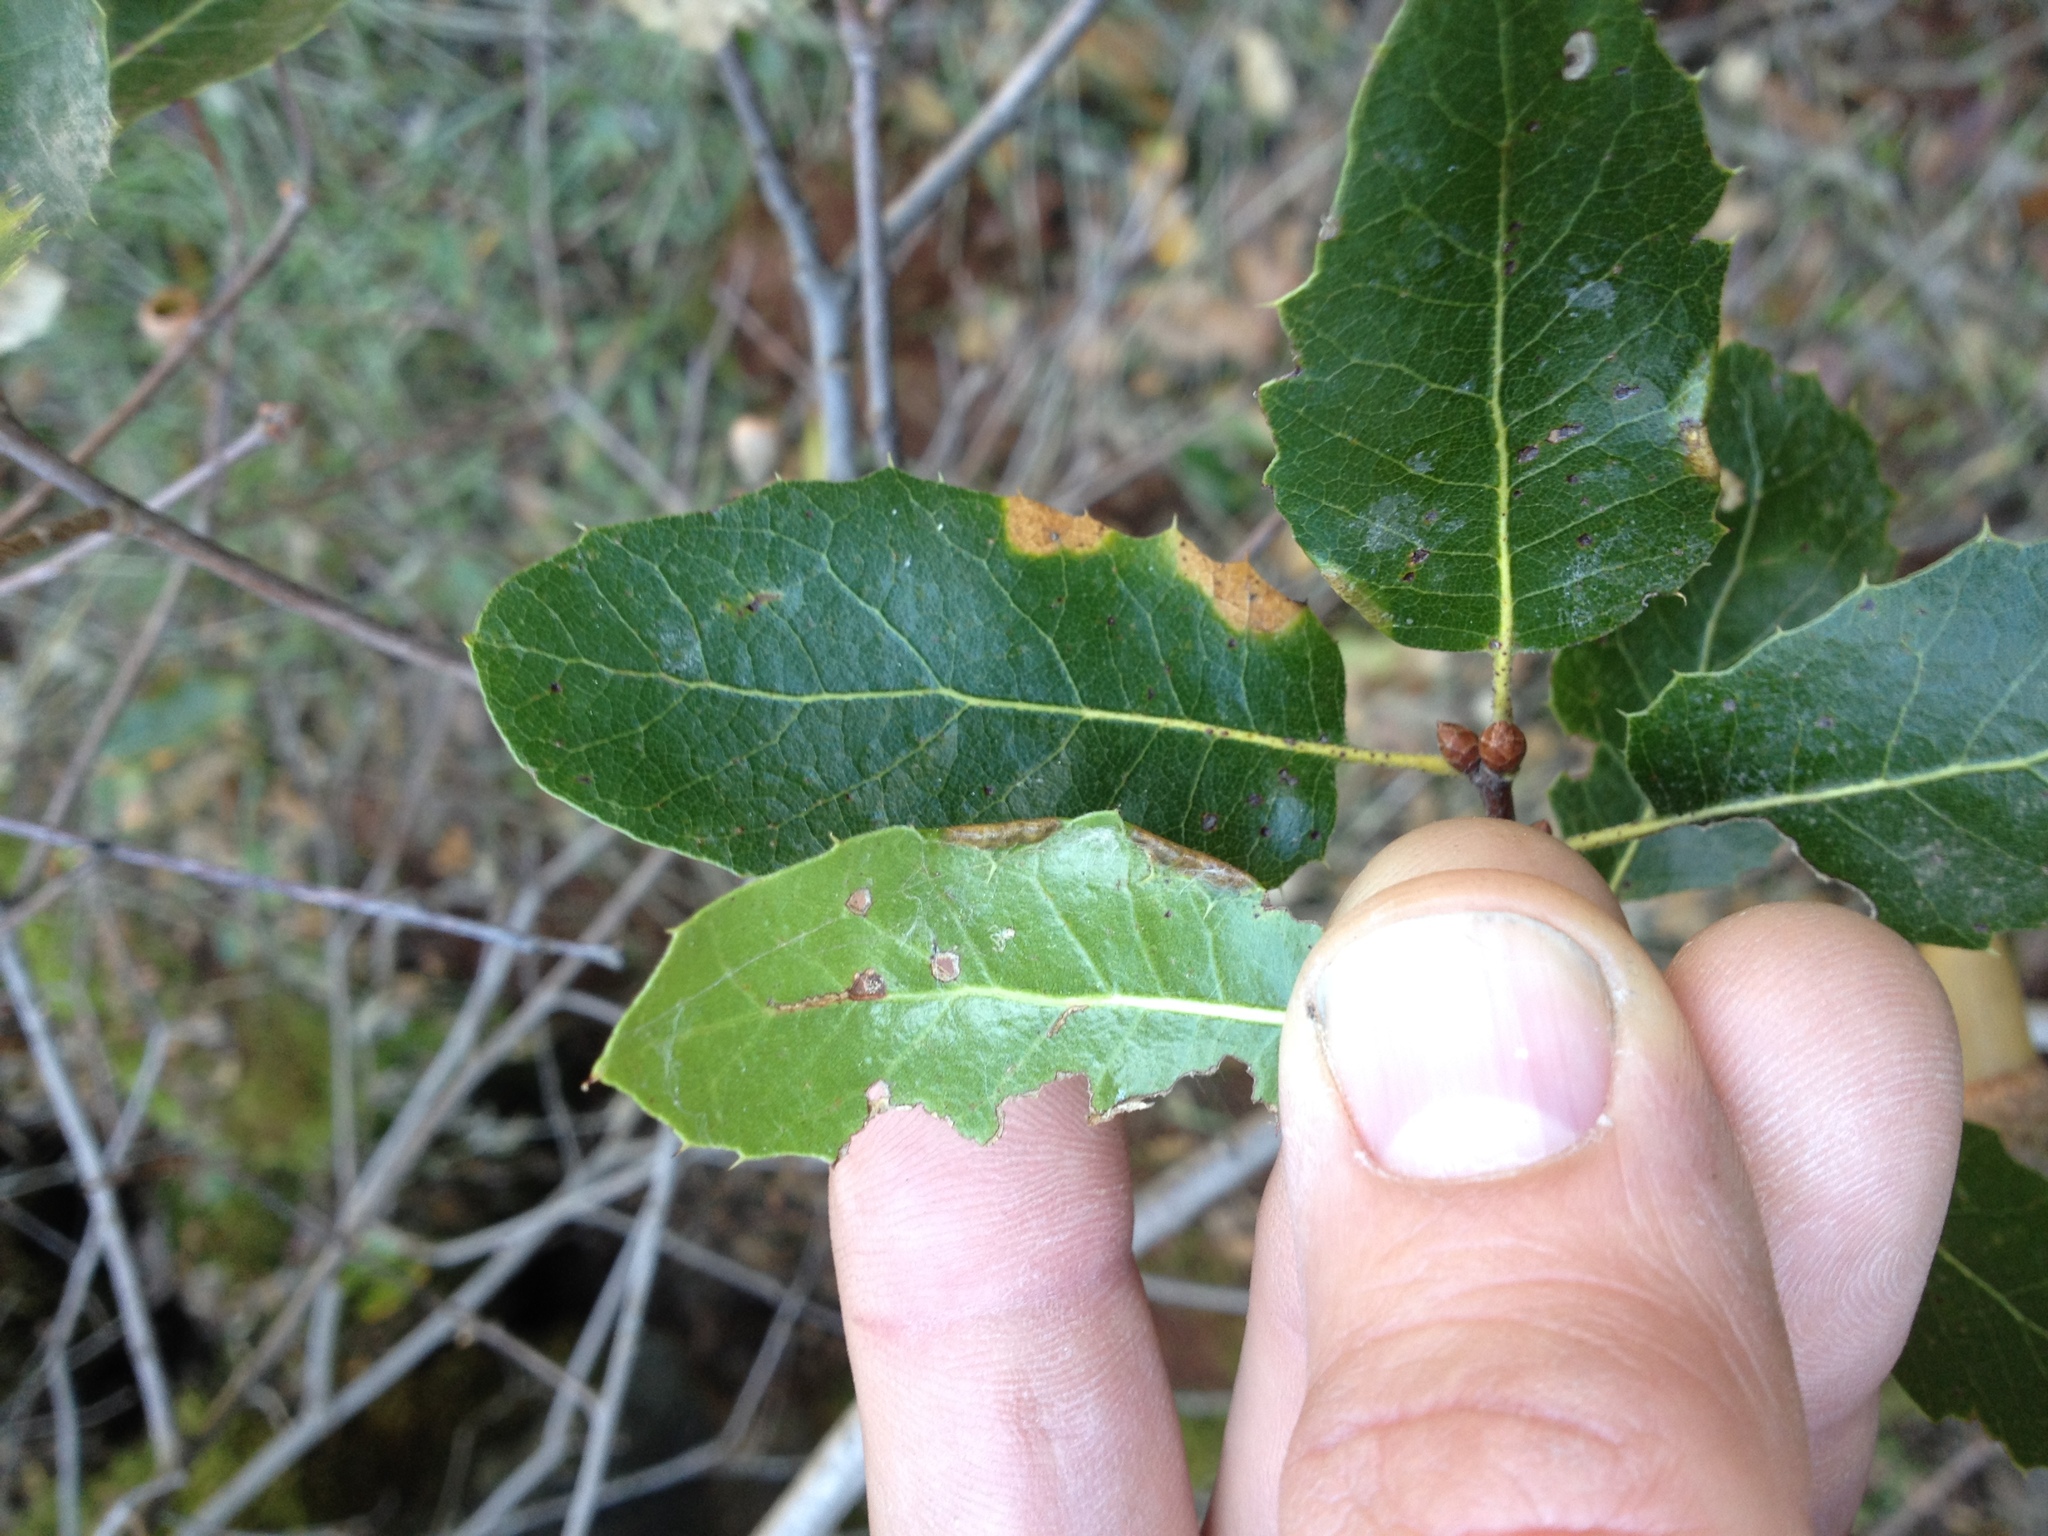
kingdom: Plantae
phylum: Tracheophyta
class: Magnoliopsida
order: Fagales
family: Fagaceae
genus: Quercus
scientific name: Quercus wislizeni
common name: Interior live oak
